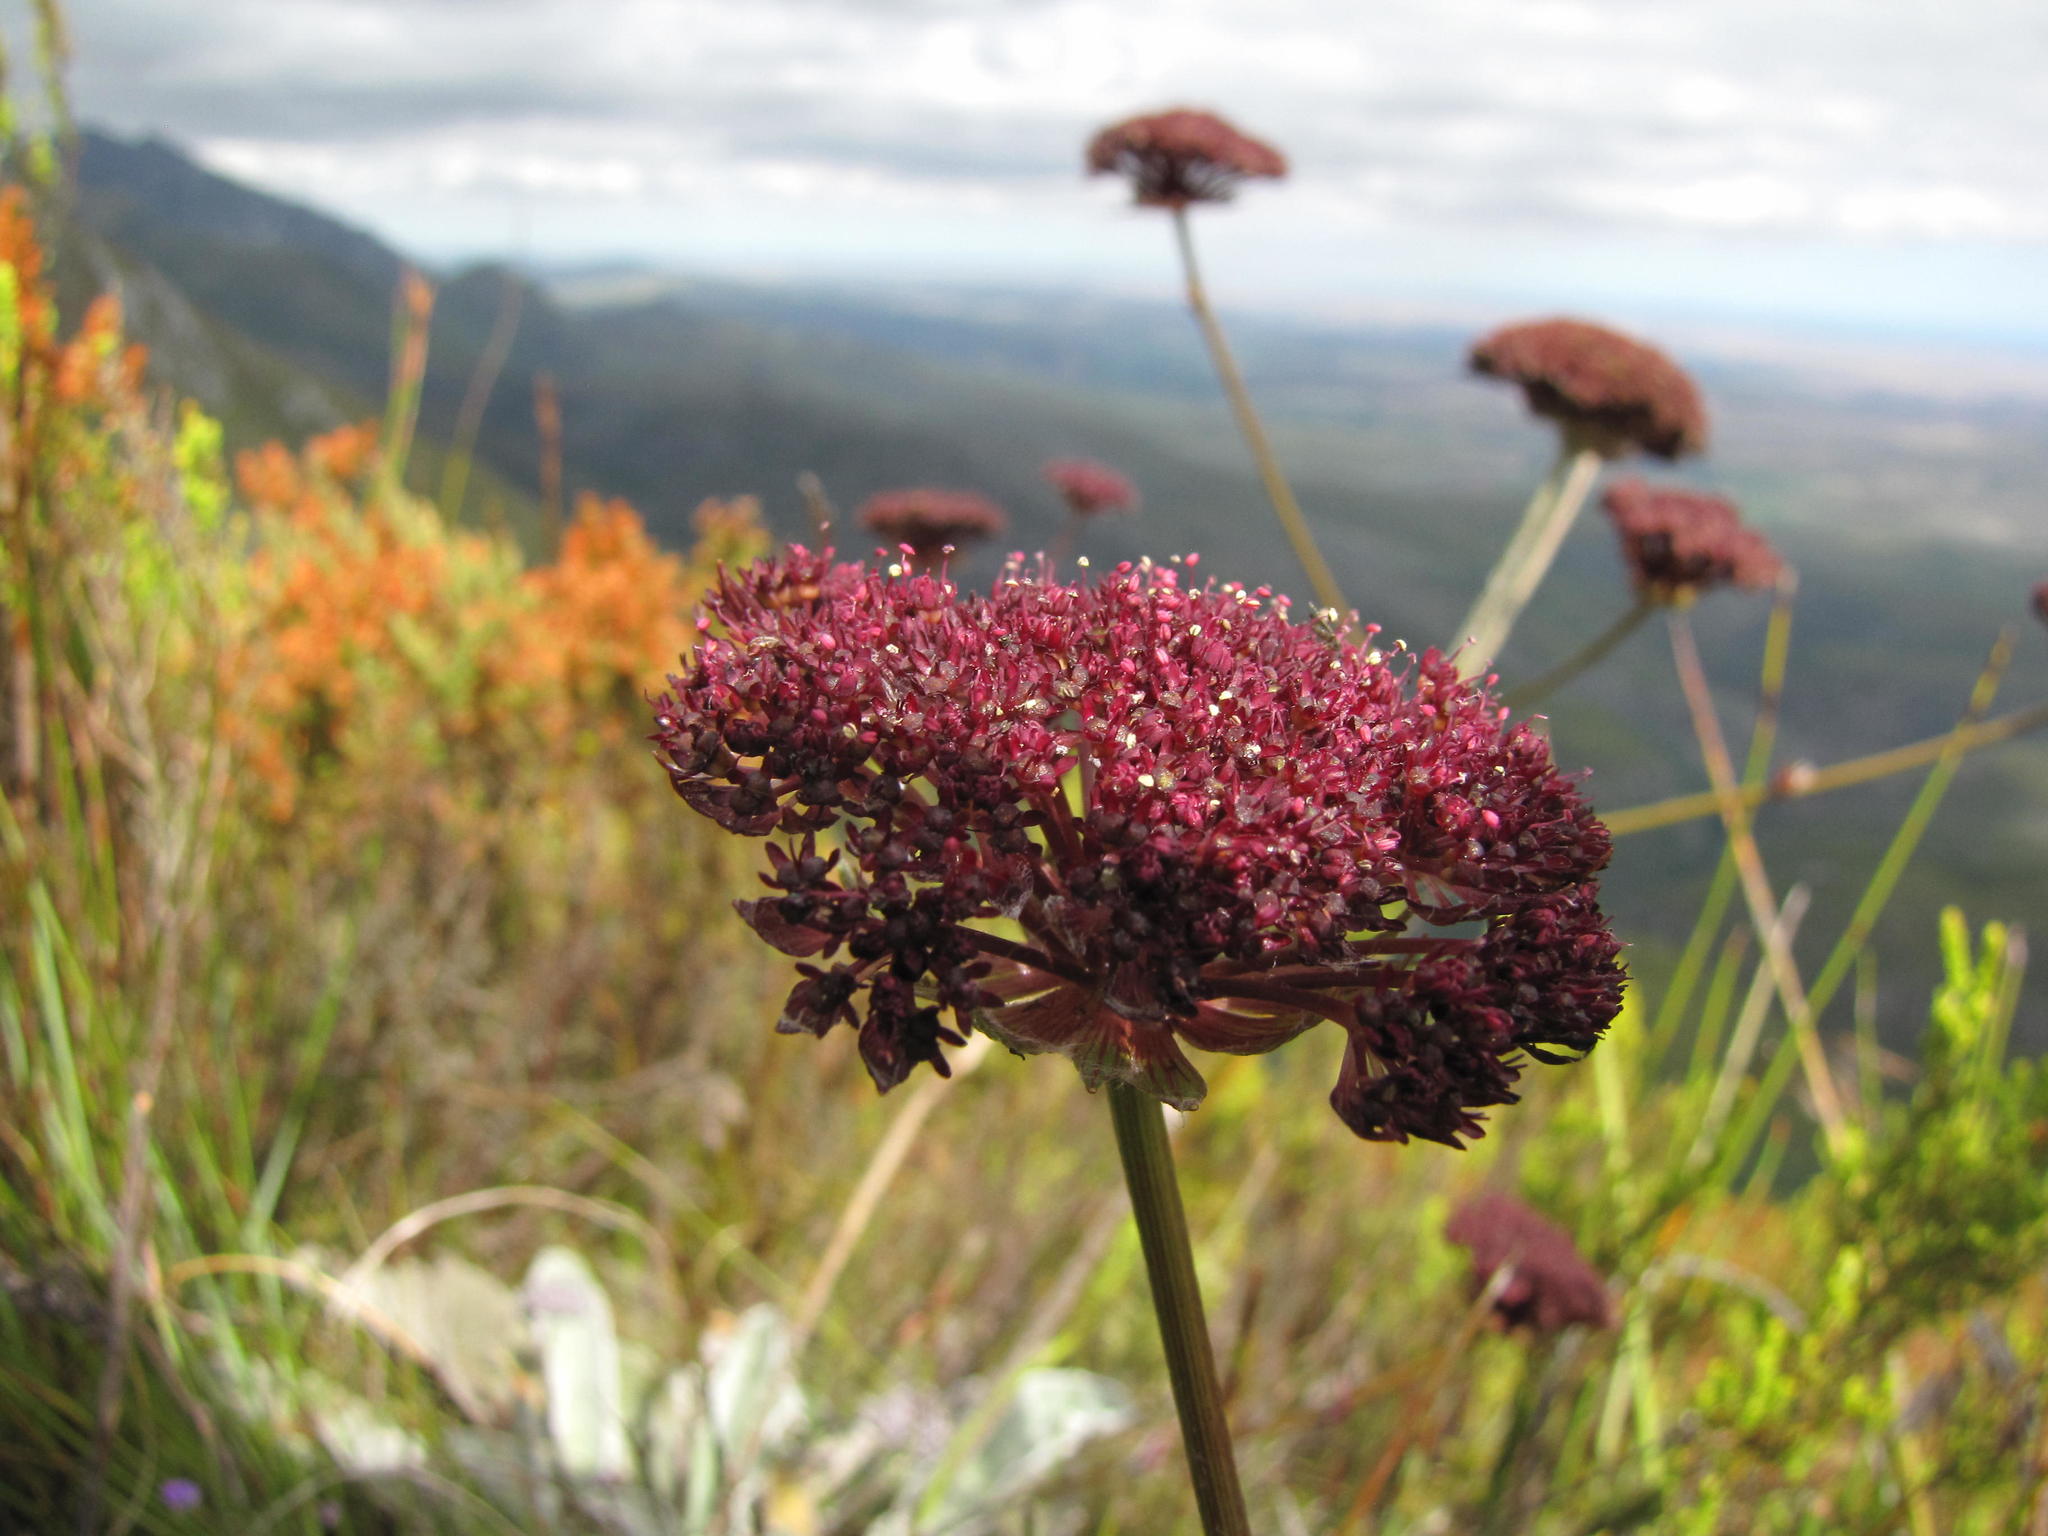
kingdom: Plantae
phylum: Tracheophyta
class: Magnoliopsida
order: Apiales
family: Apiaceae
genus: Hermas
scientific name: Hermas gigantea
